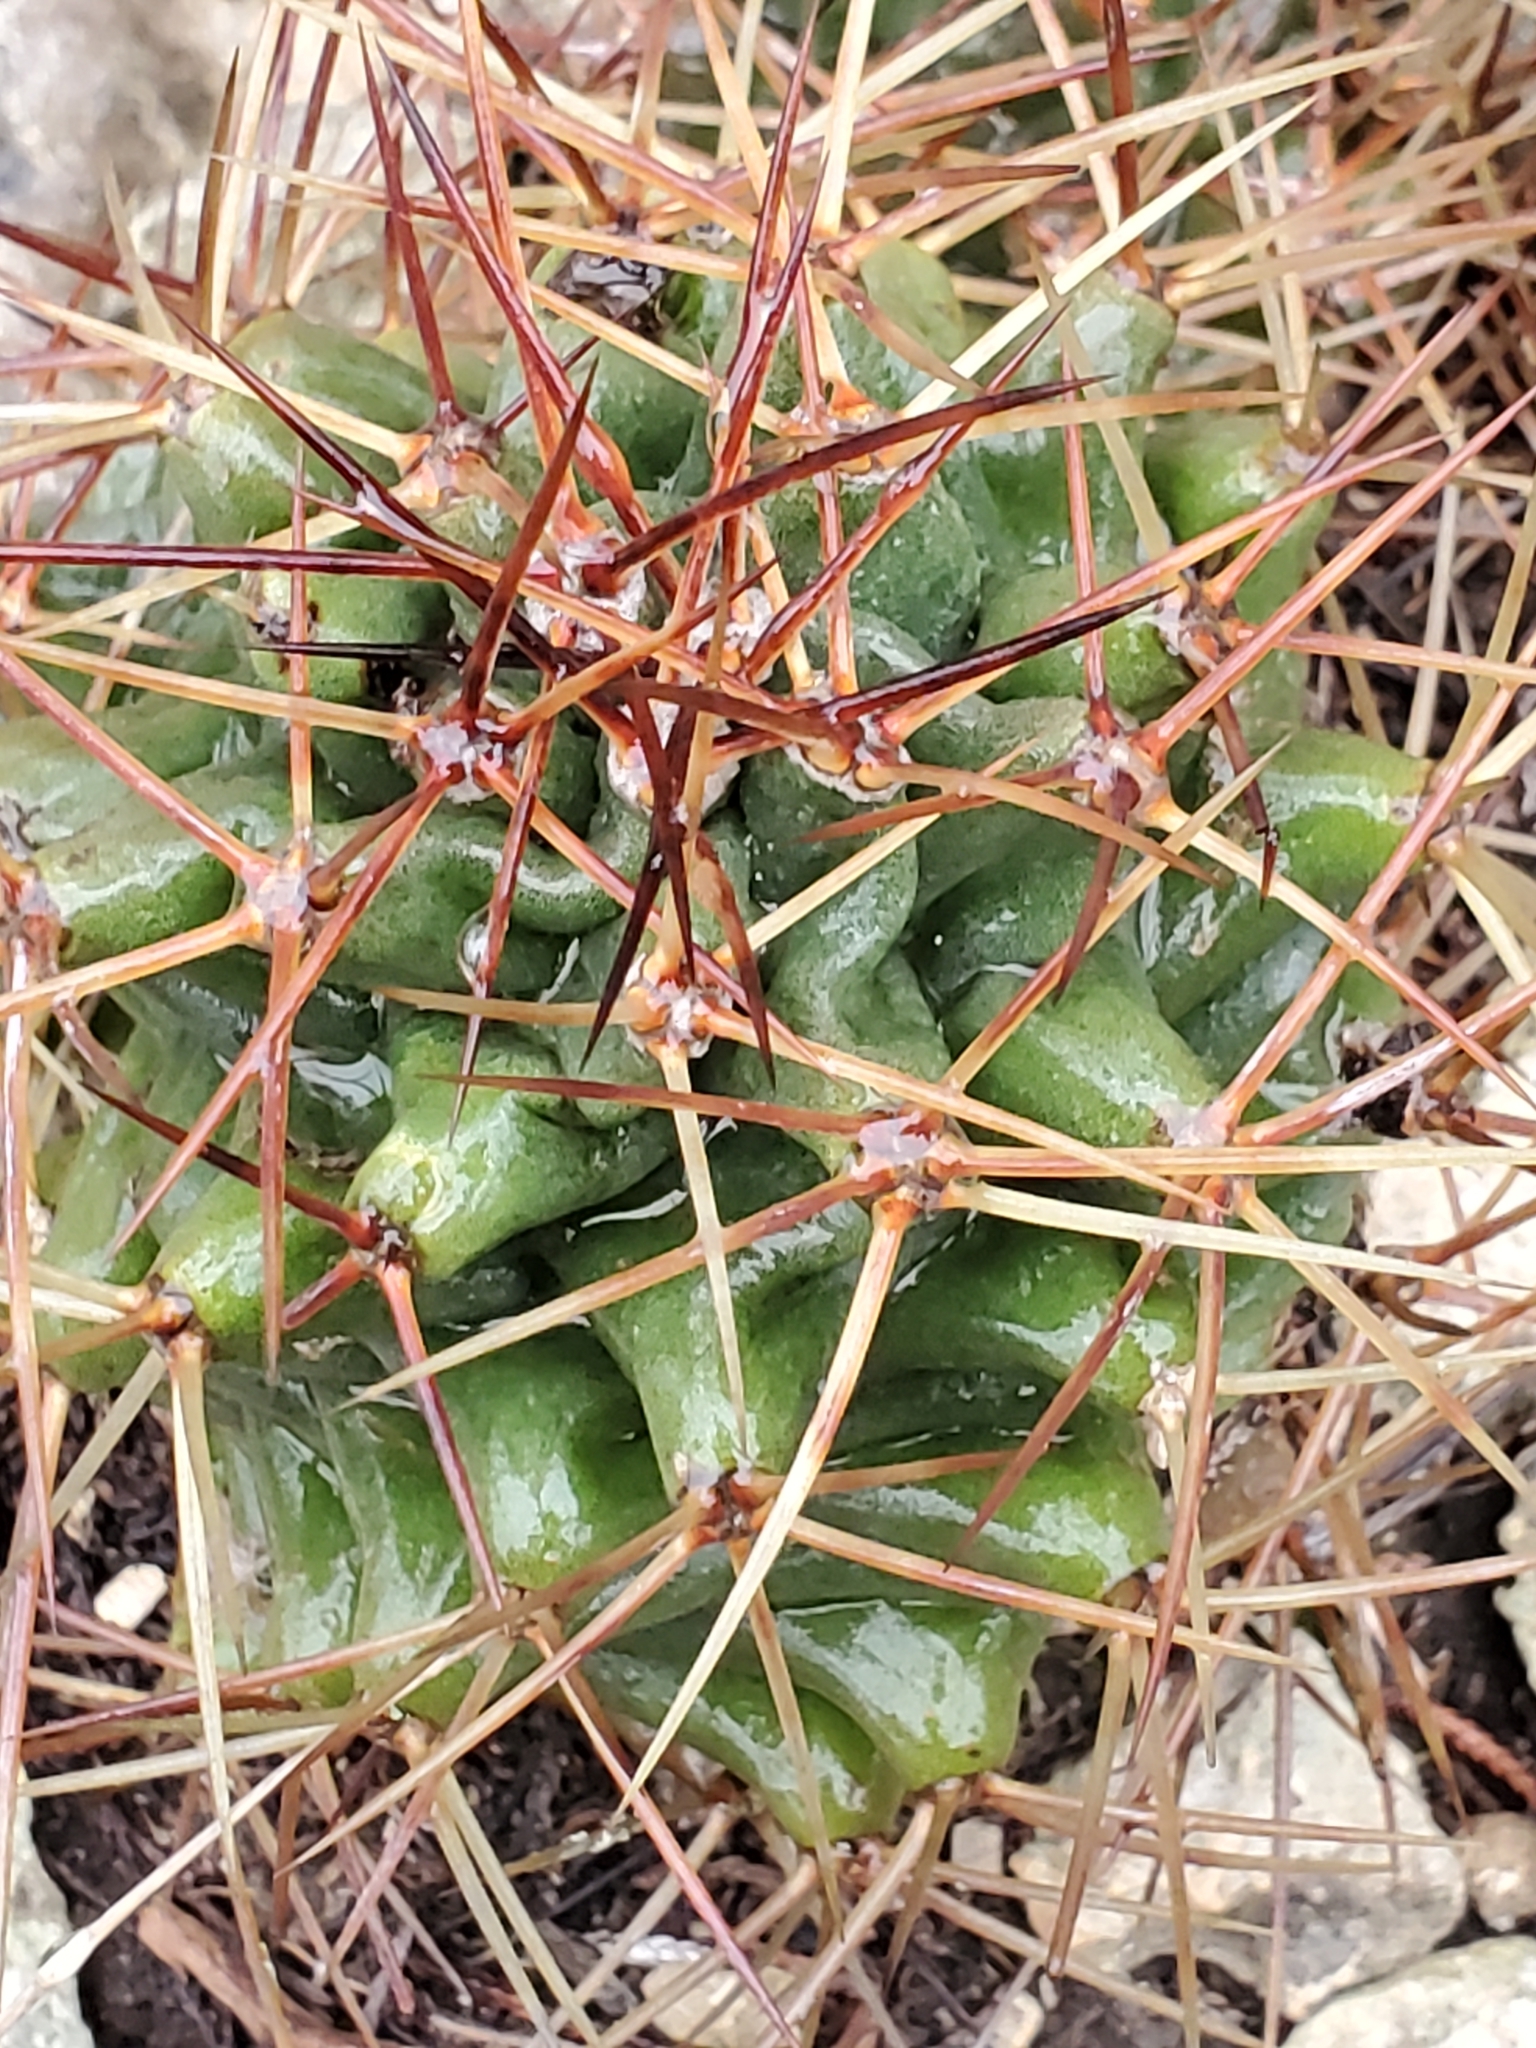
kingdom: Plantae
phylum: Tracheophyta
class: Magnoliopsida
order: Caryophyllales
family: Cactaceae
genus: Echinocereus
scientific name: Echinocereus coccineus
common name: Scarlet hedgehog cactus
